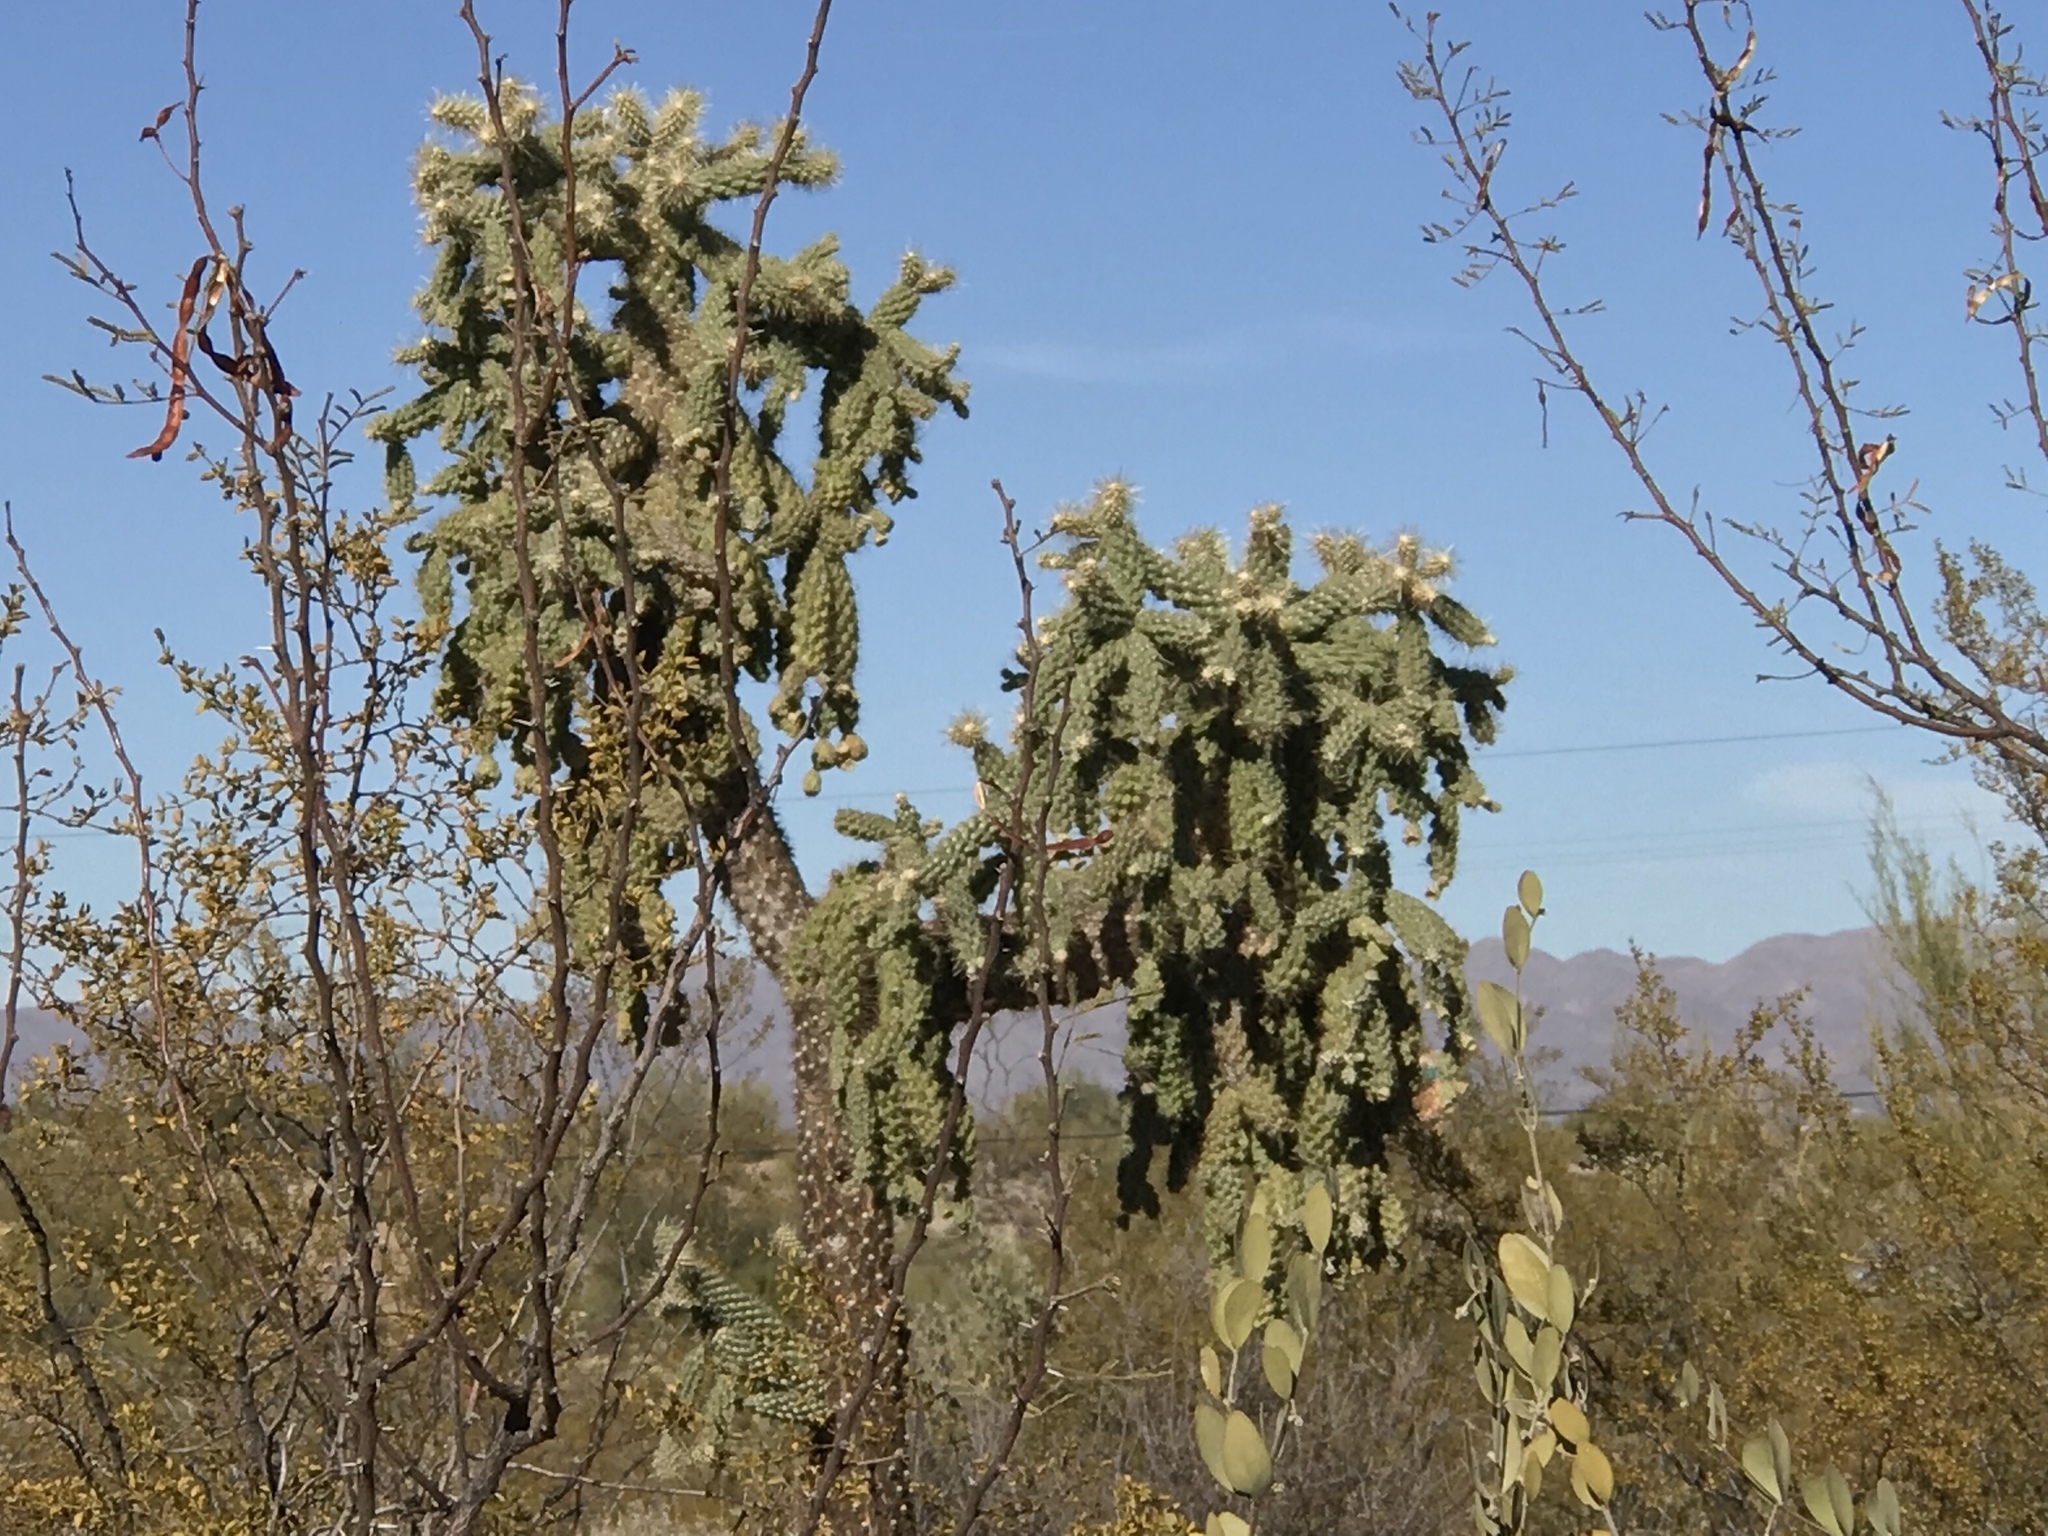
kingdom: Plantae
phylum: Tracheophyta
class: Magnoliopsida
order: Caryophyllales
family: Cactaceae
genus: Cylindropuntia
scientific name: Cylindropuntia fulgida
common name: Jumping cholla
